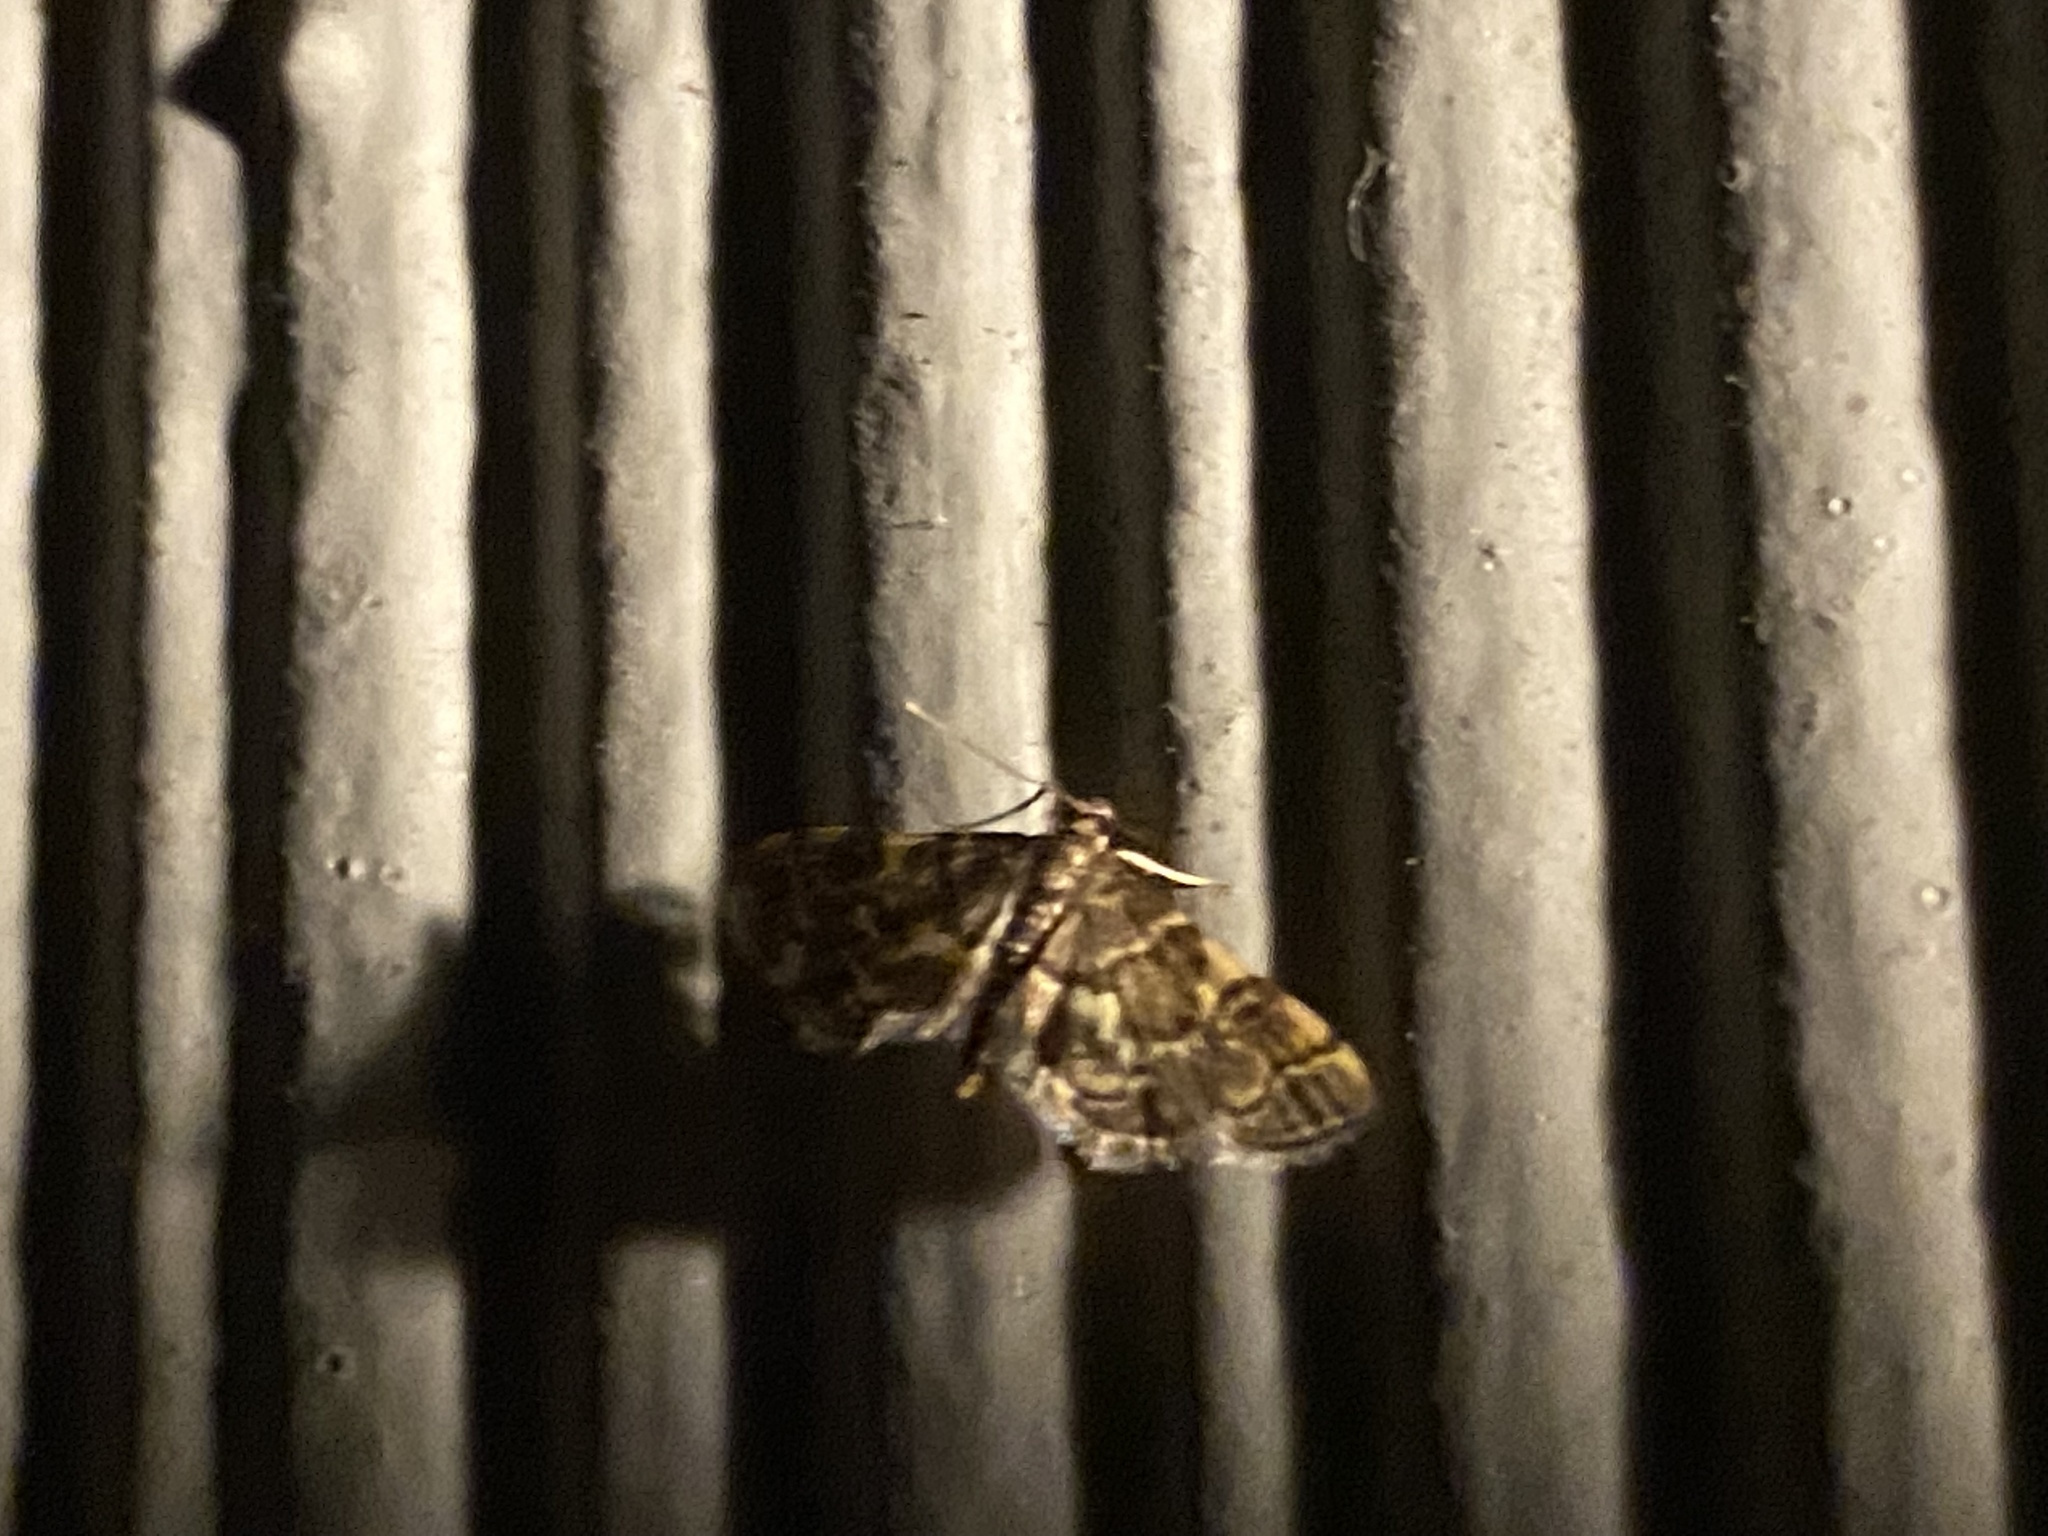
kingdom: Animalia
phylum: Arthropoda
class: Insecta
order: Lepidoptera
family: Crambidae
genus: Anageshna
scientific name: Anageshna primordialis
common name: Yellow-spotted webworm moth
